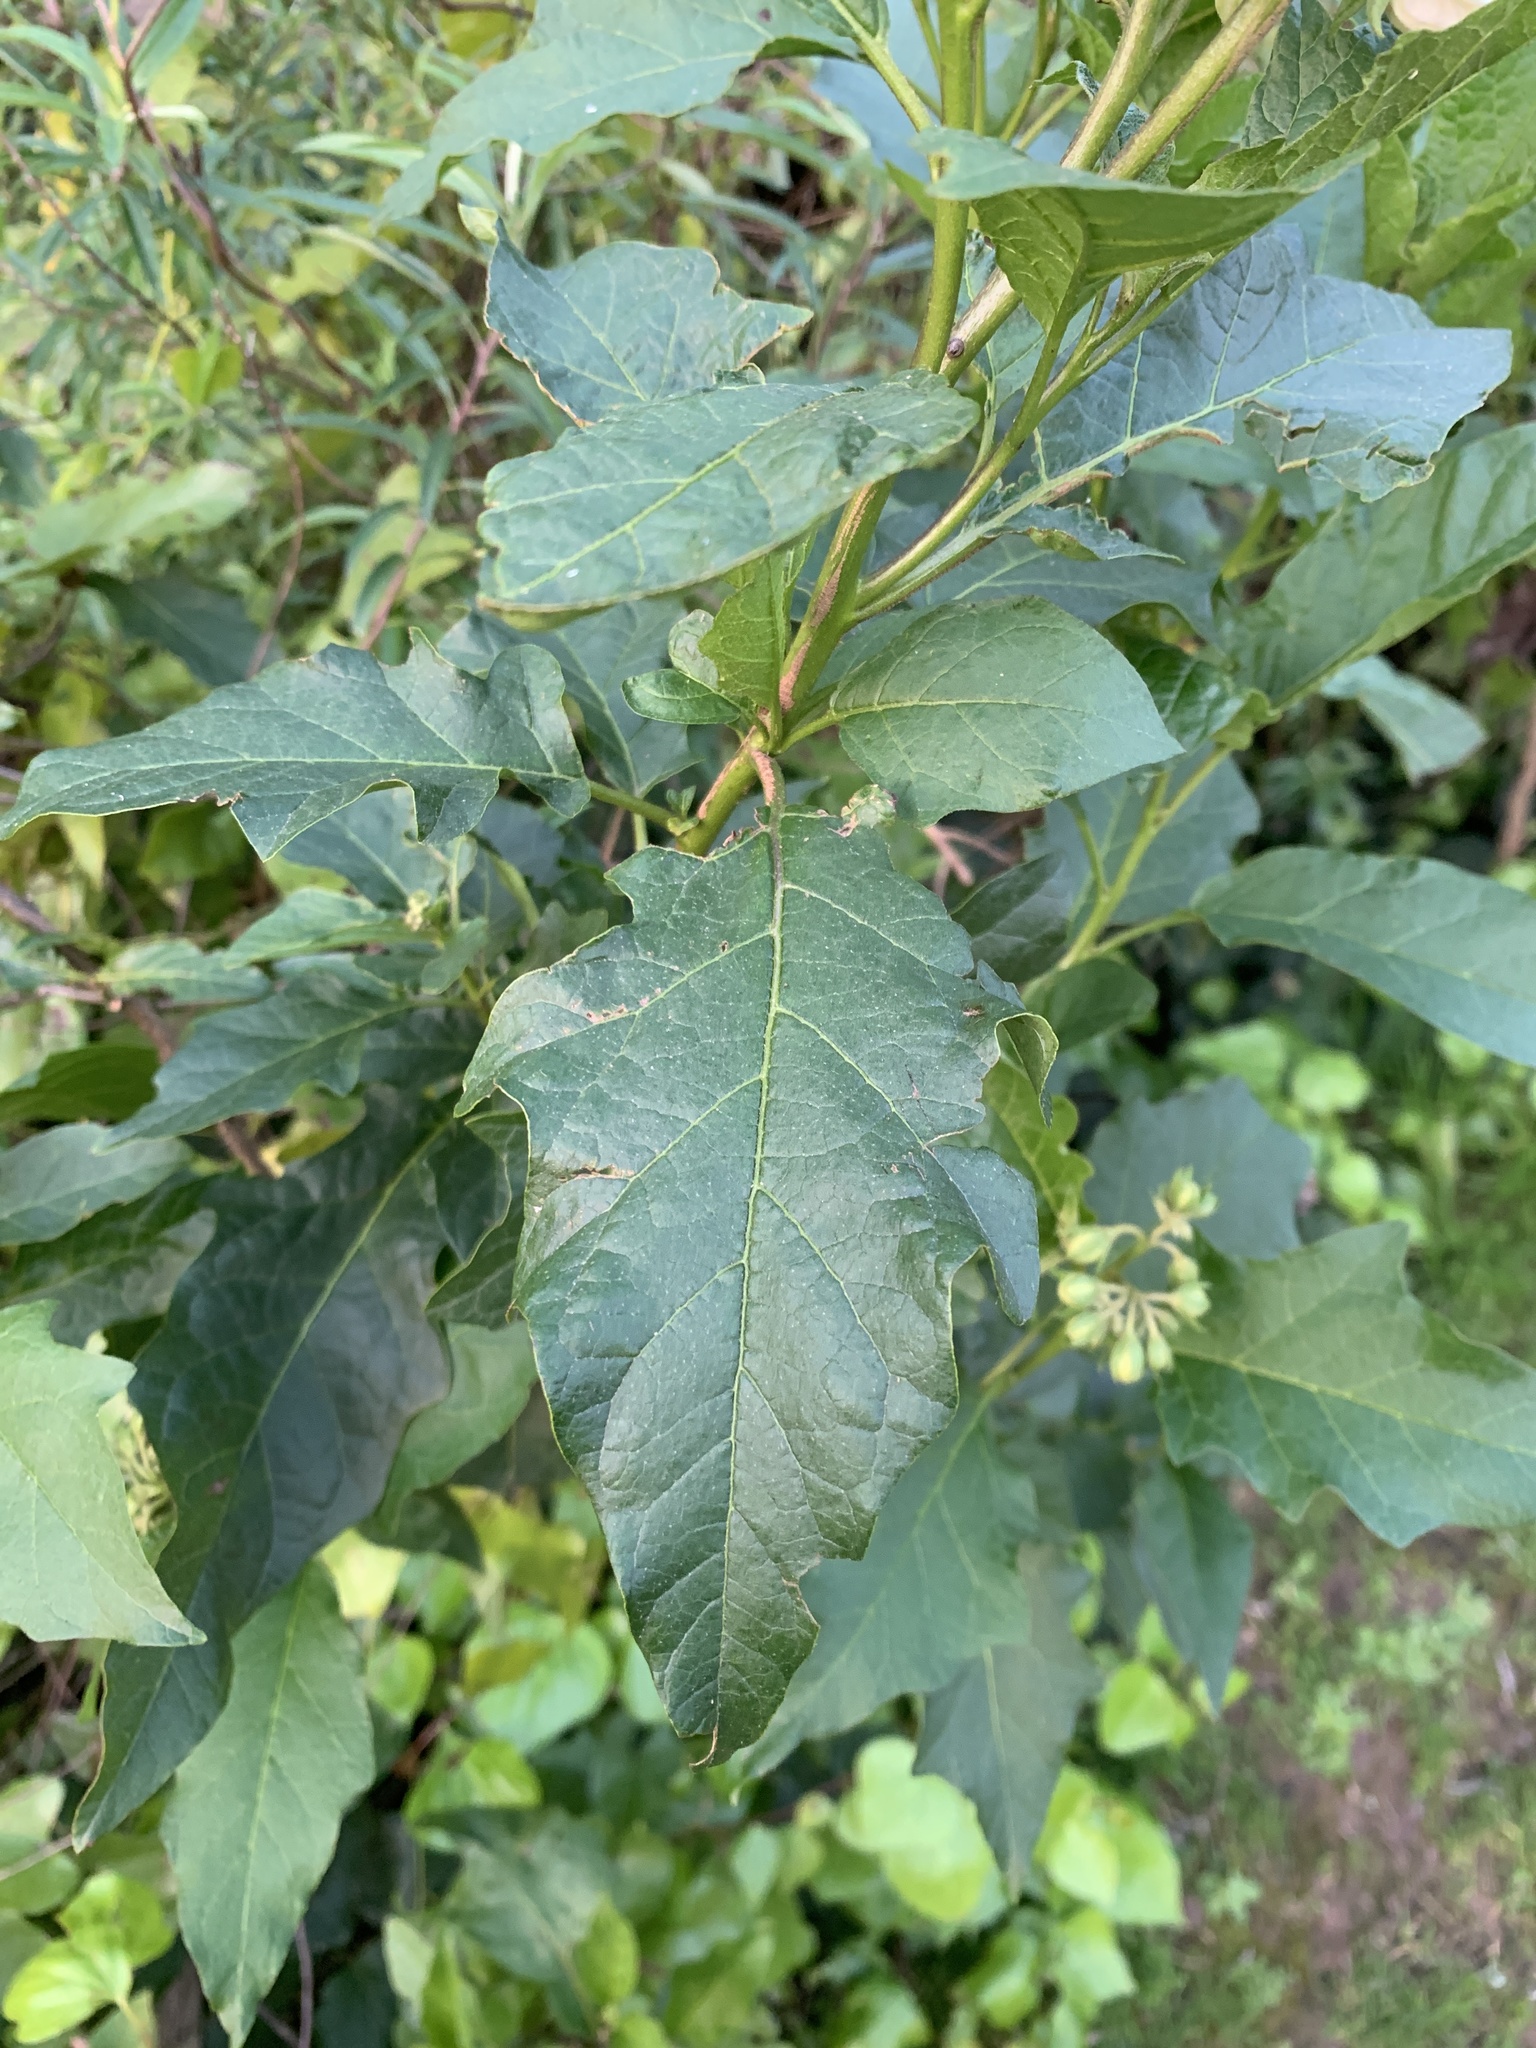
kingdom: Plantae
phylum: Tracheophyta
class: Magnoliopsida
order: Solanales
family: Solanaceae
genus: Solanum
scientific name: Solanum bonariense
